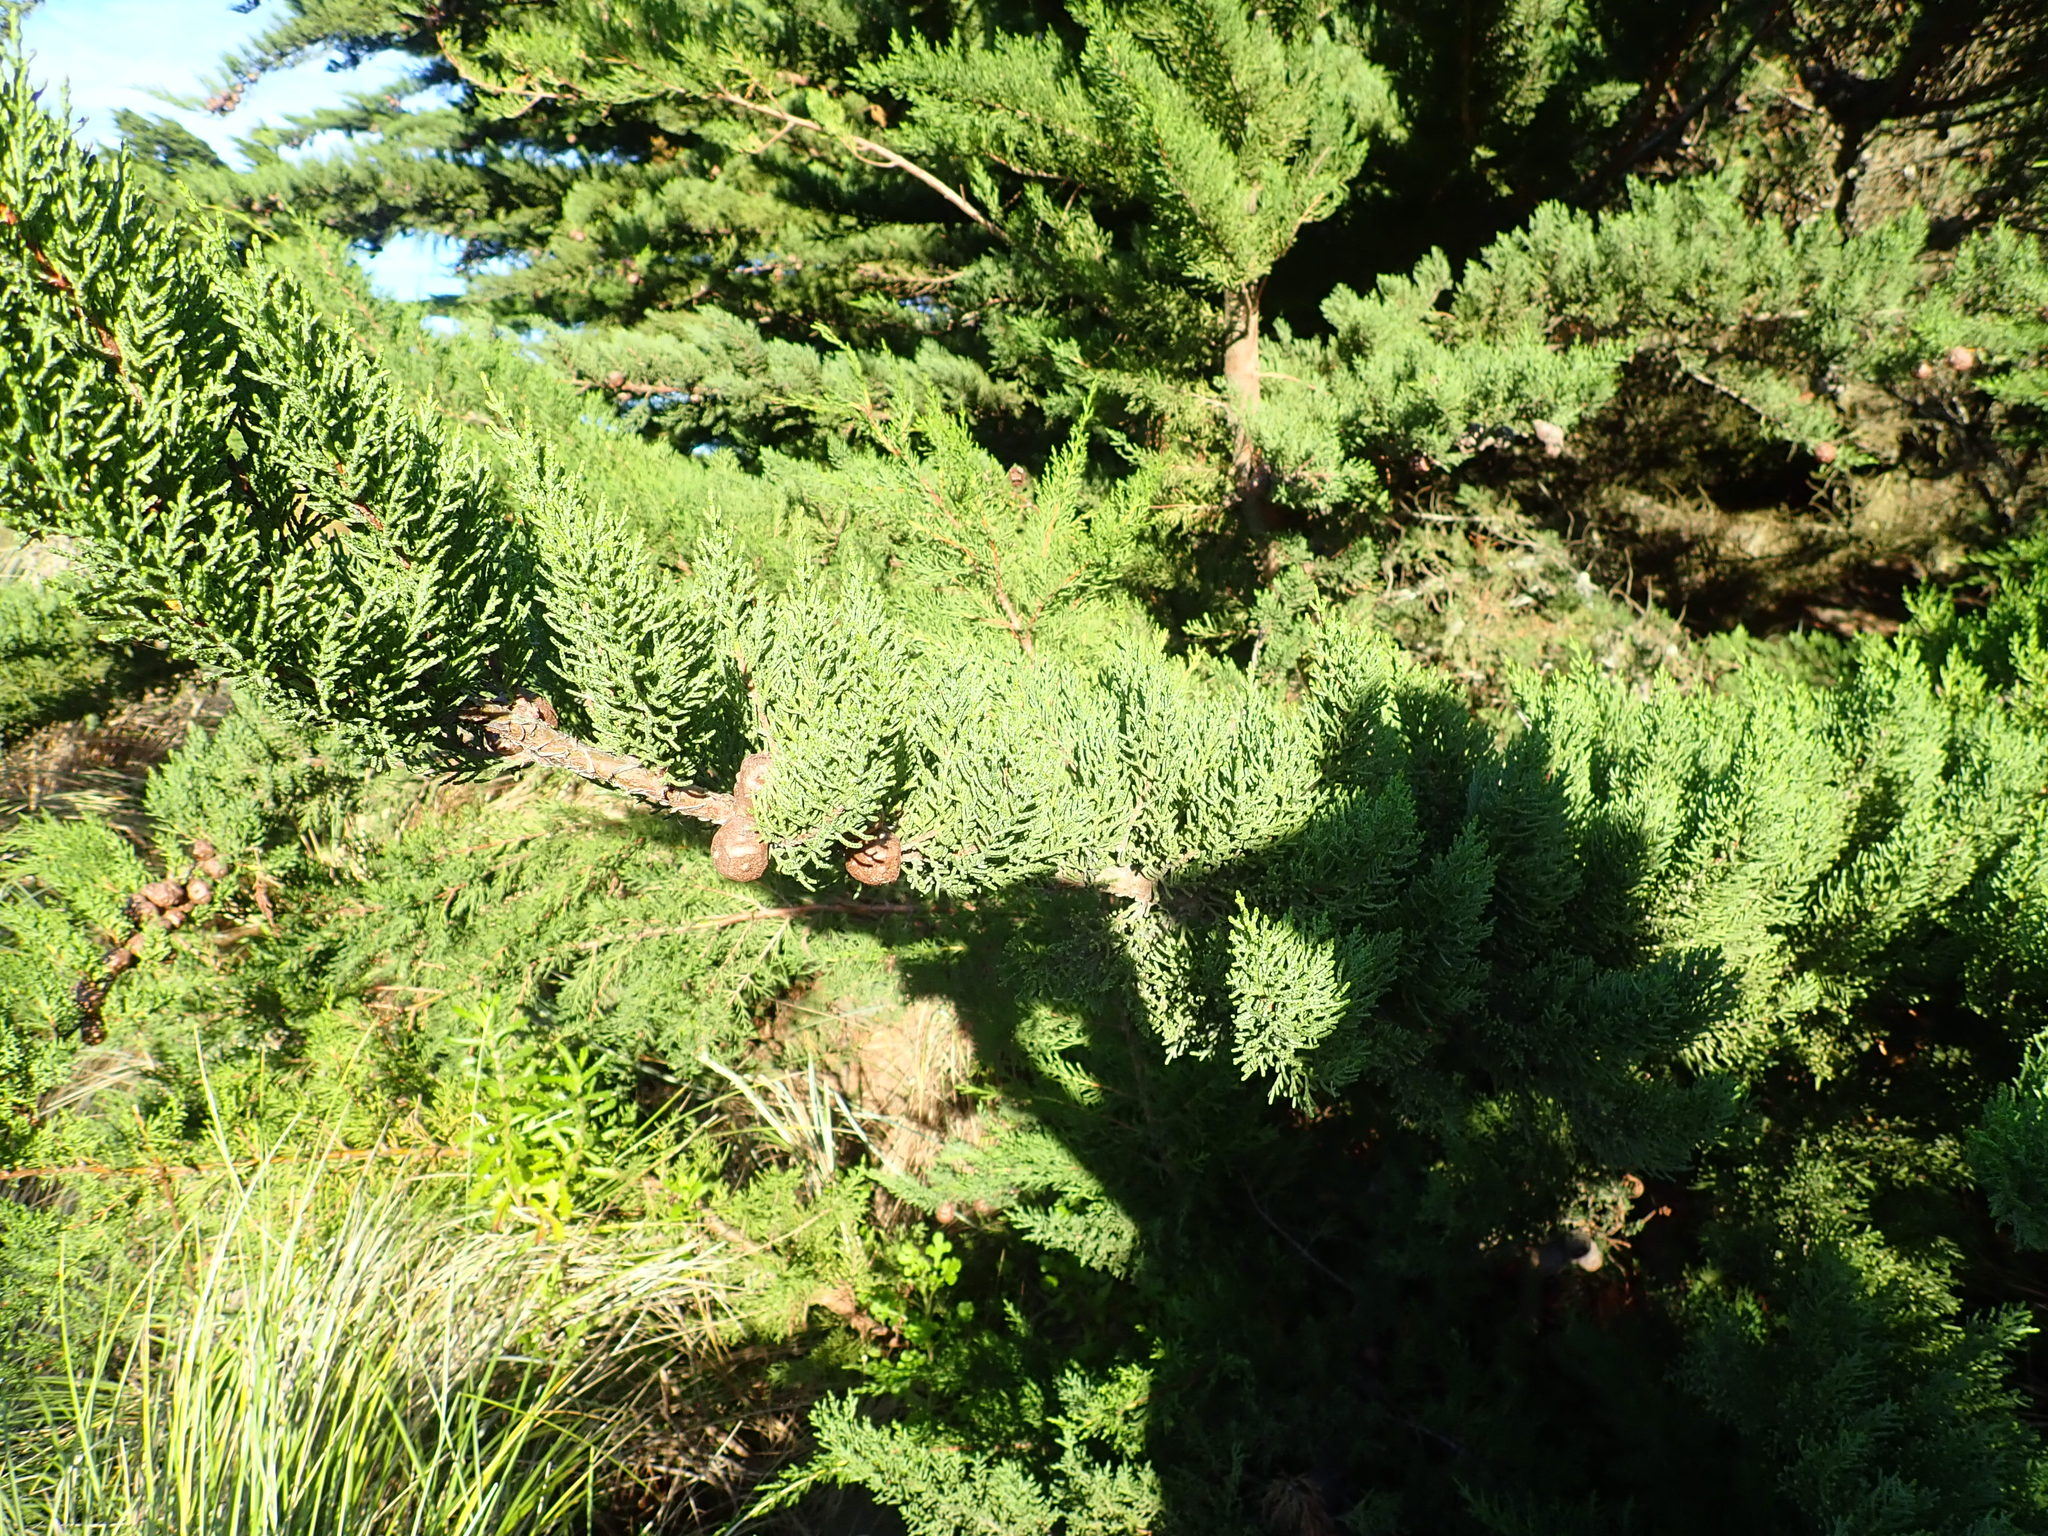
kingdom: Plantae
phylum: Tracheophyta
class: Pinopsida
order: Pinales
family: Cupressaceae
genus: Cupressus
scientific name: Cupressus macrocarpa
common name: Monterey cypress
